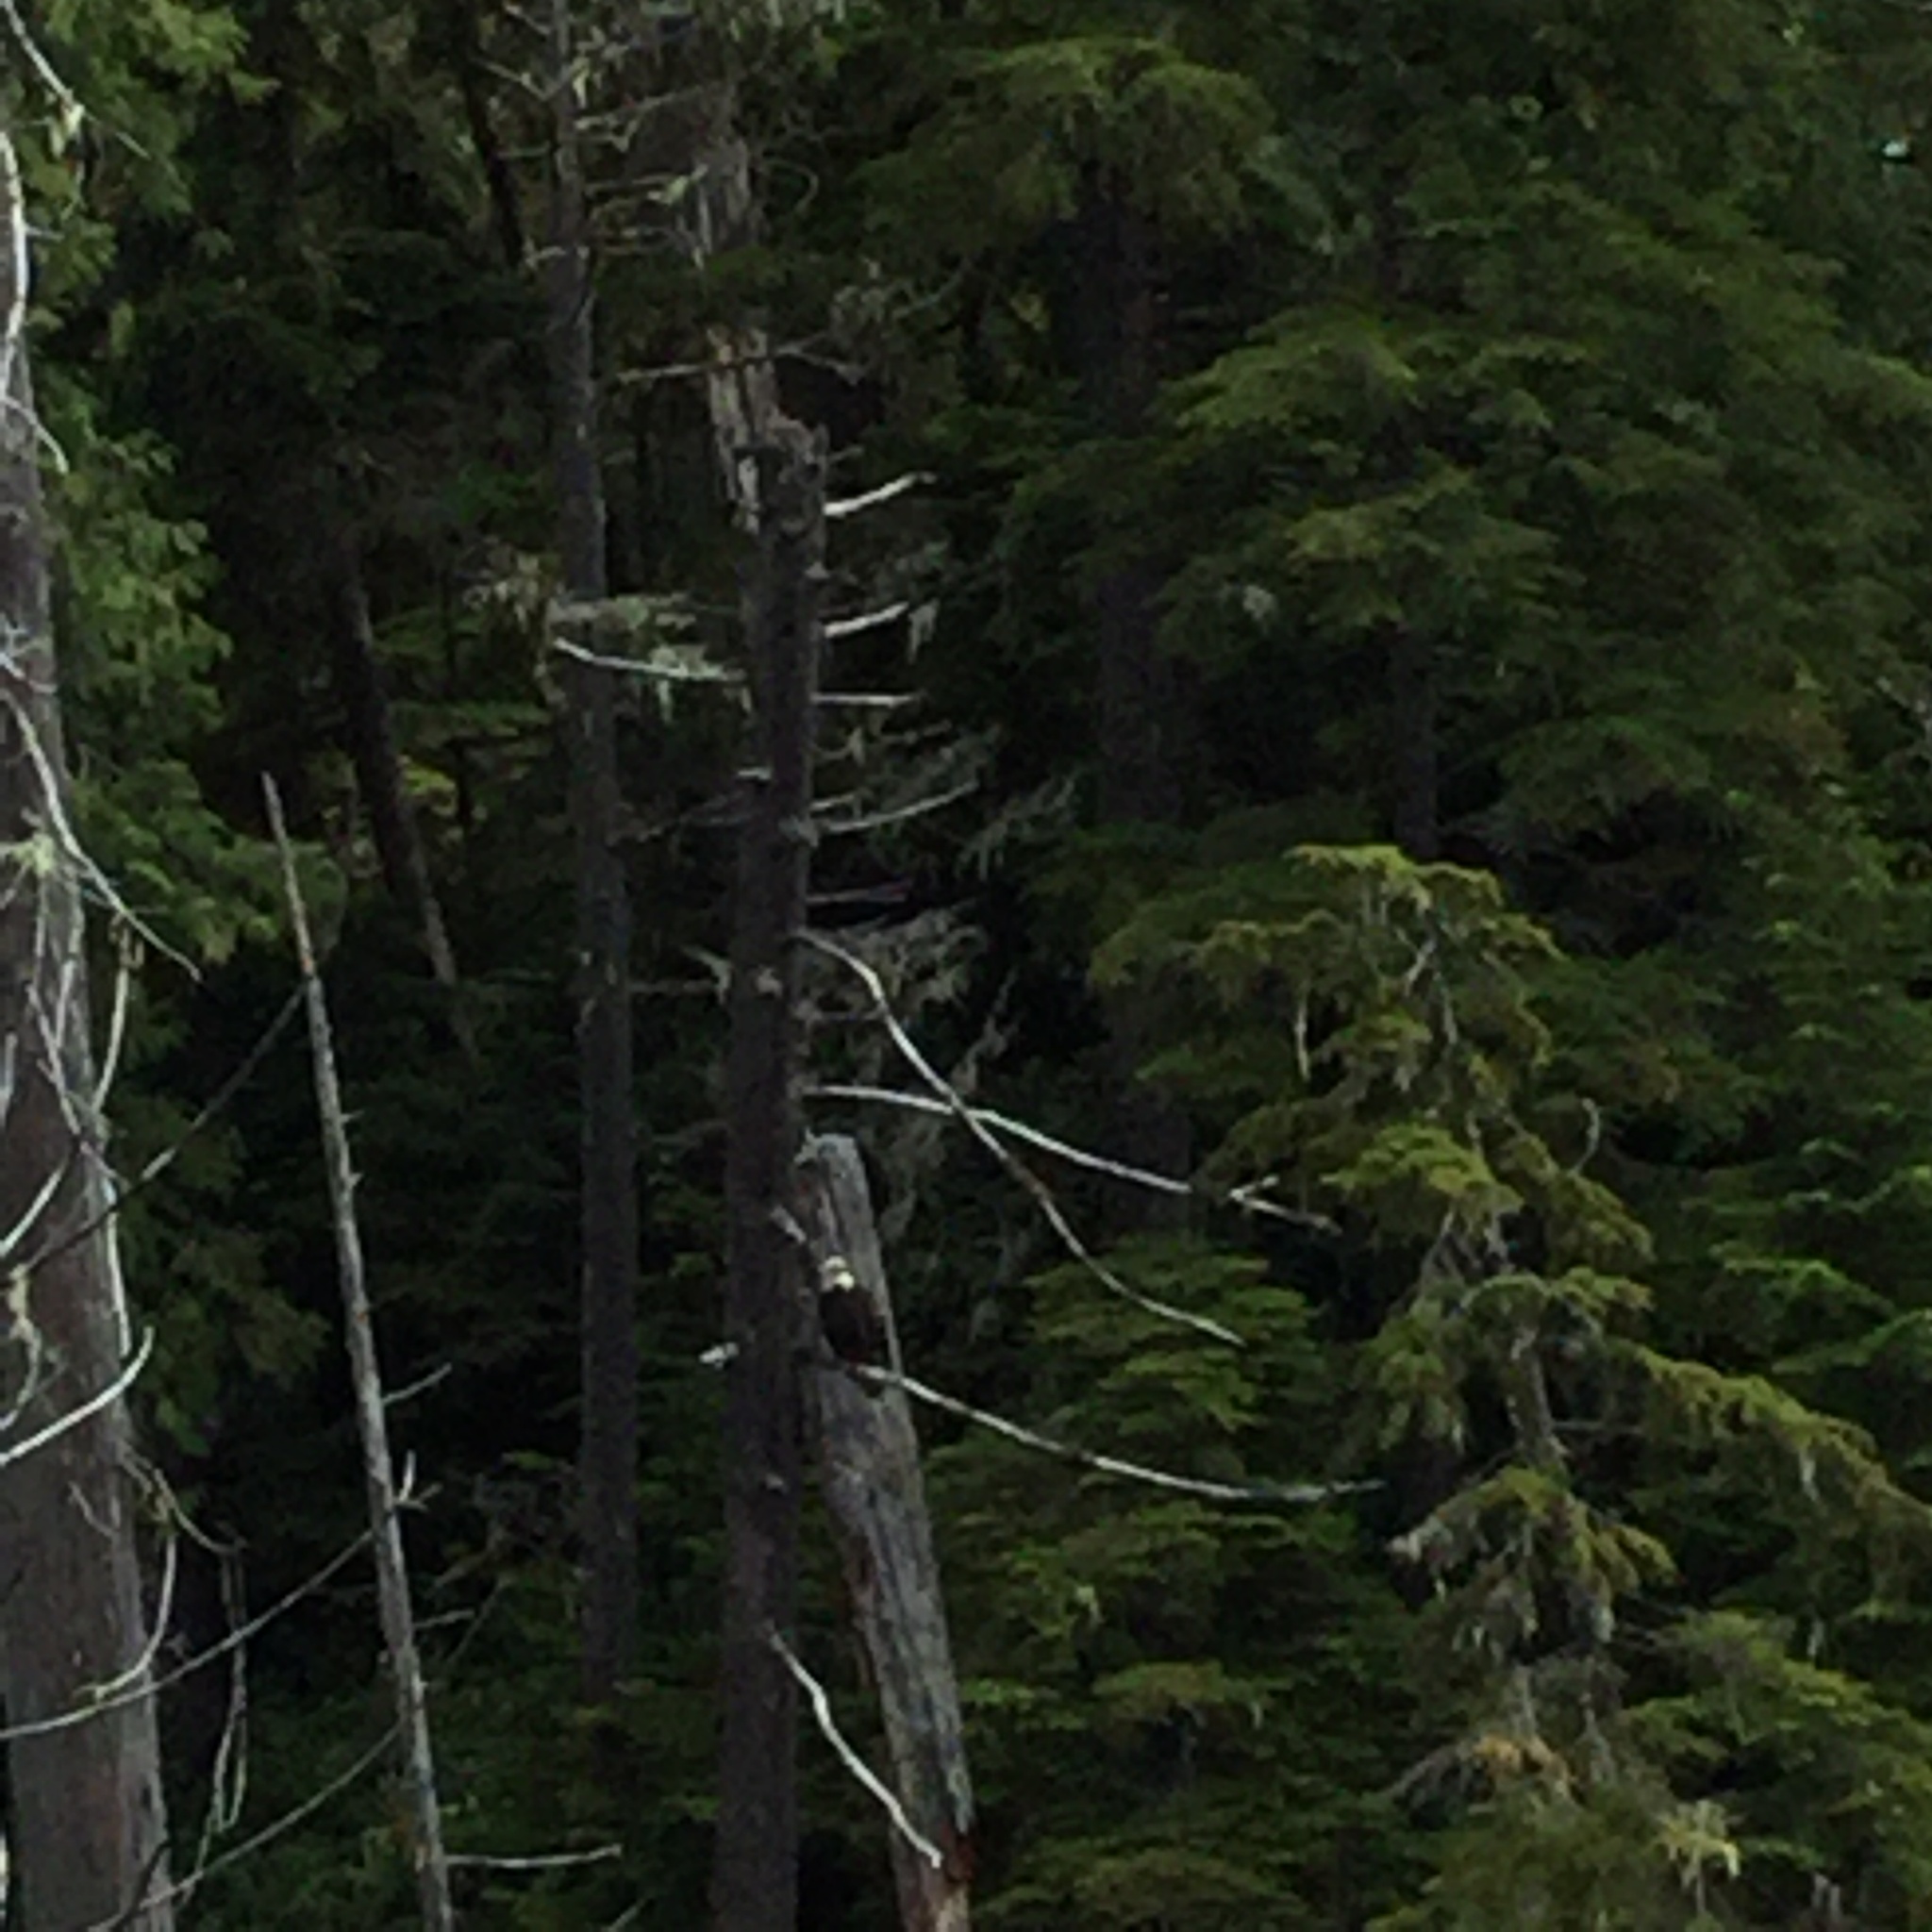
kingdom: Animalia
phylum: Chordata
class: Aves
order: Accipitriformes
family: Accipitridae
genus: Haliaeetus
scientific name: Haliaeetus leucocephalus
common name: Bald eagle
